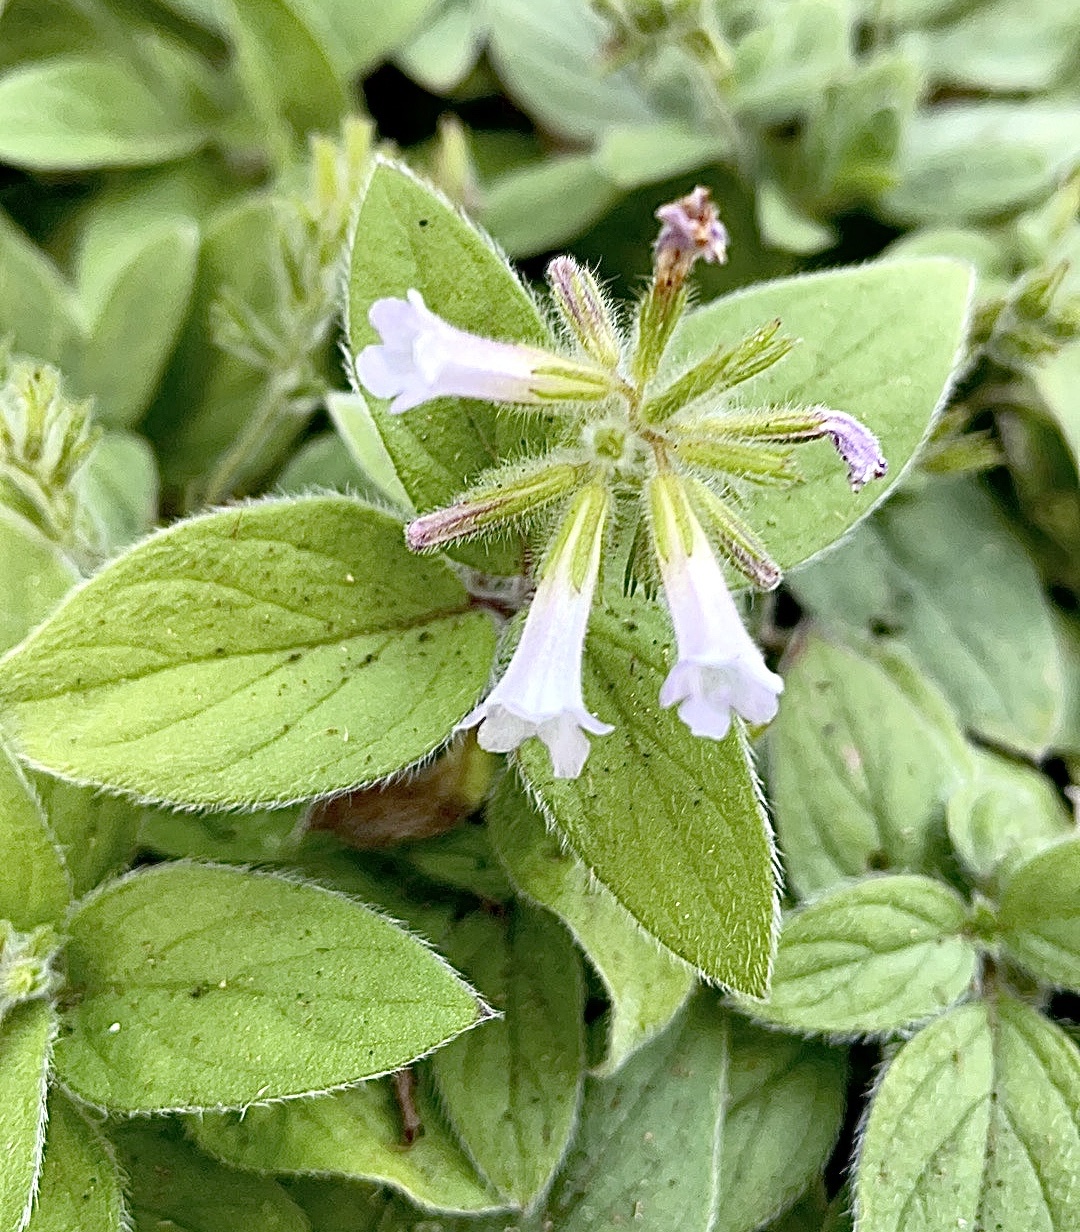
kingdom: Plantae
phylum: Tracheophyta
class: Magnoliopsida
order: Boraginales
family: Hydrophyllaceae
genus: Draperia
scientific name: Draperia systyla
